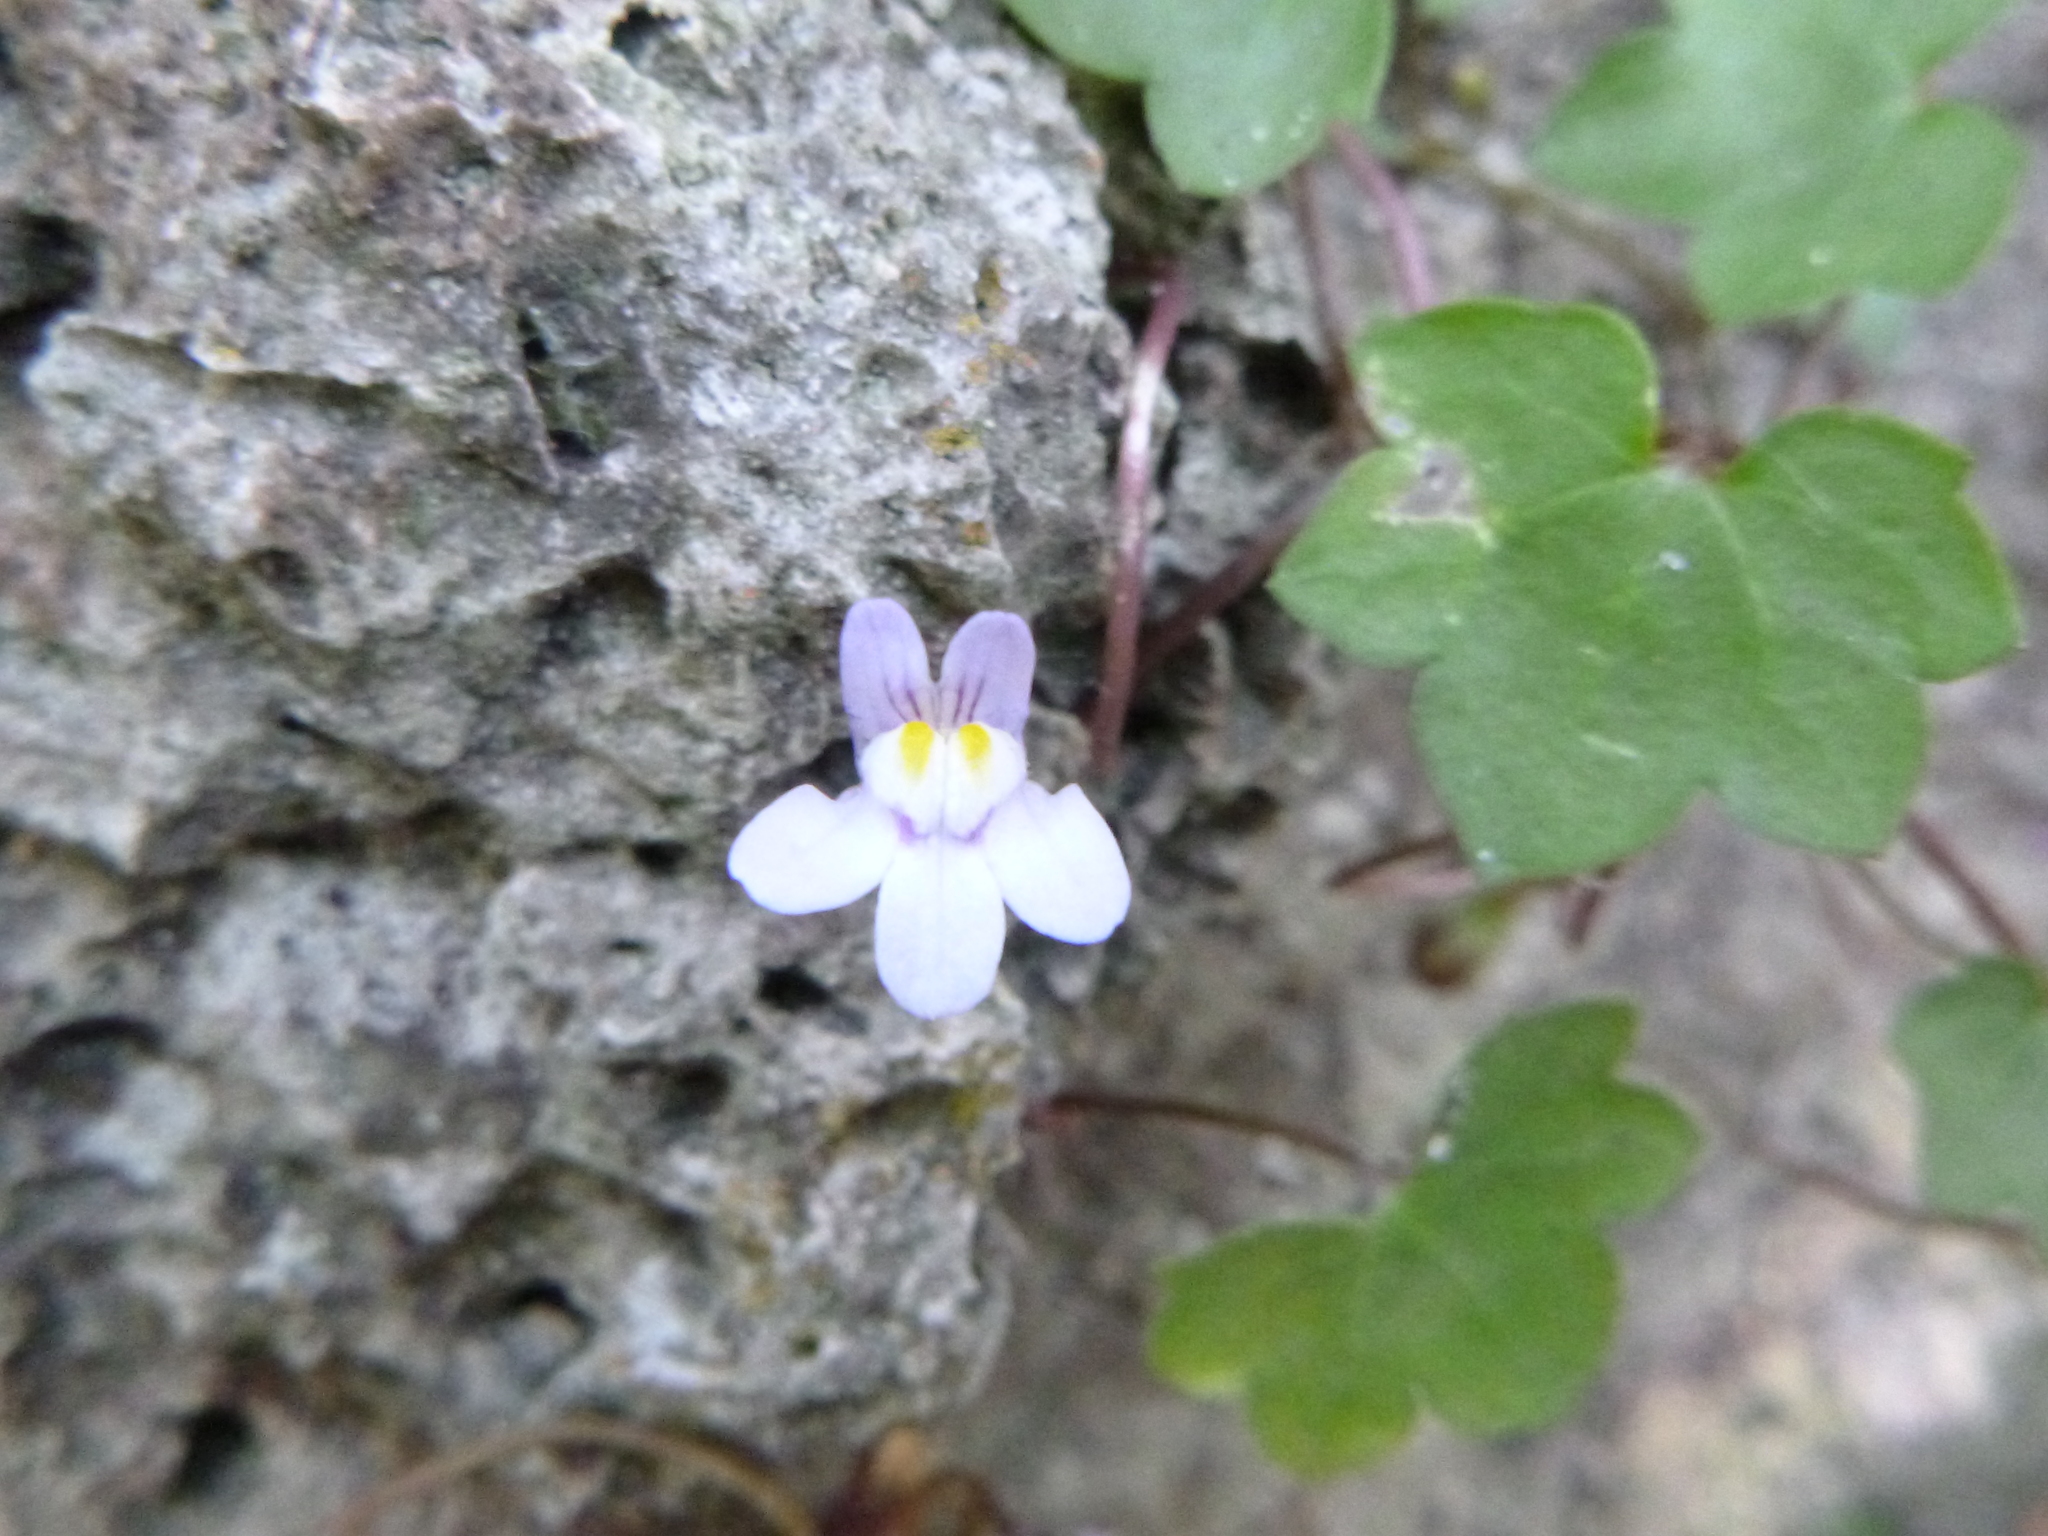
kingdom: Plantae
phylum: Tracheophyta
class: Magnoliopsida
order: Lamiales
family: Plantaginaceae
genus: Cymbalaria
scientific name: Cymbalaria muralis
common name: Ivy-leaved toadflax
